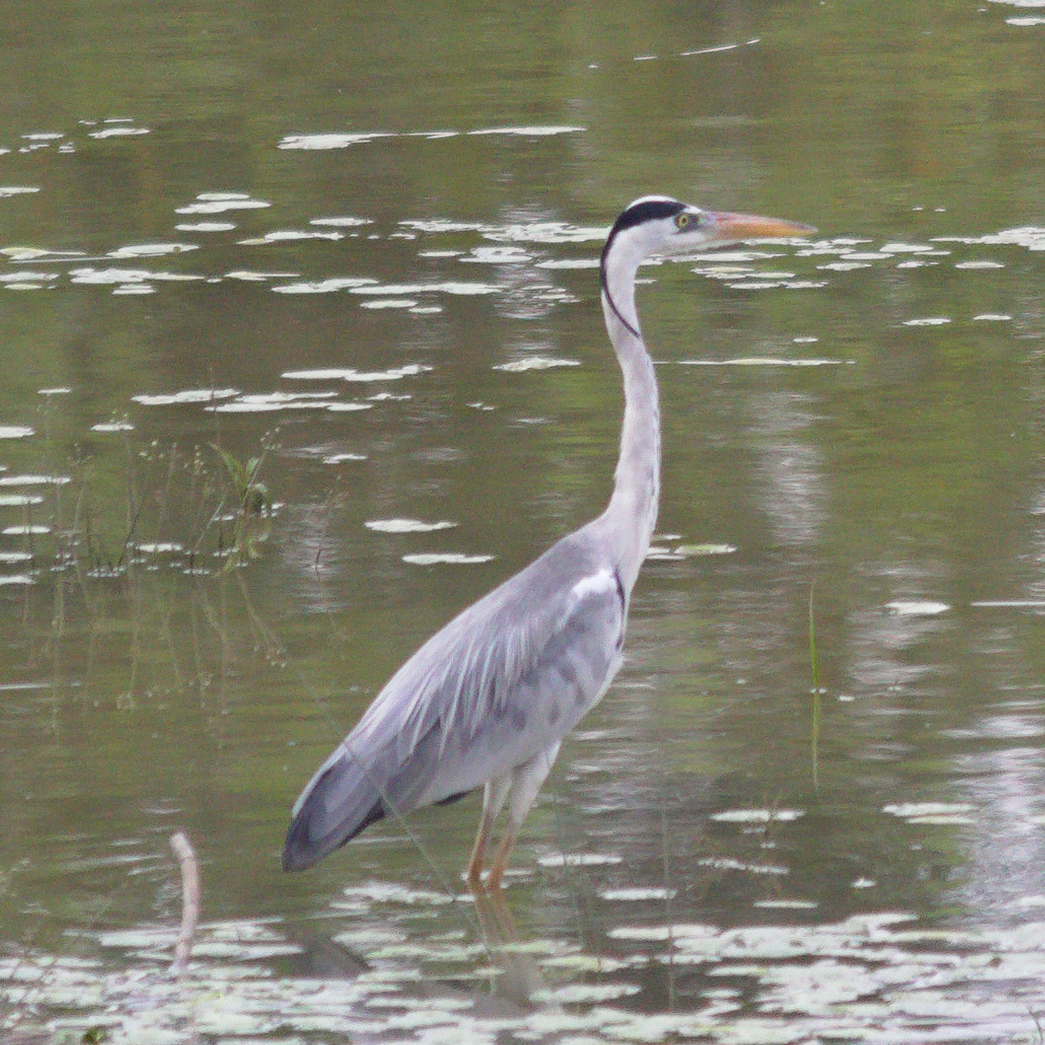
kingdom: Animalia
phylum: Chordata
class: Aves
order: Pelecaniformes
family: Ardeidae
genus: Ardea
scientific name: Ardea cinerea
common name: Grey heron
